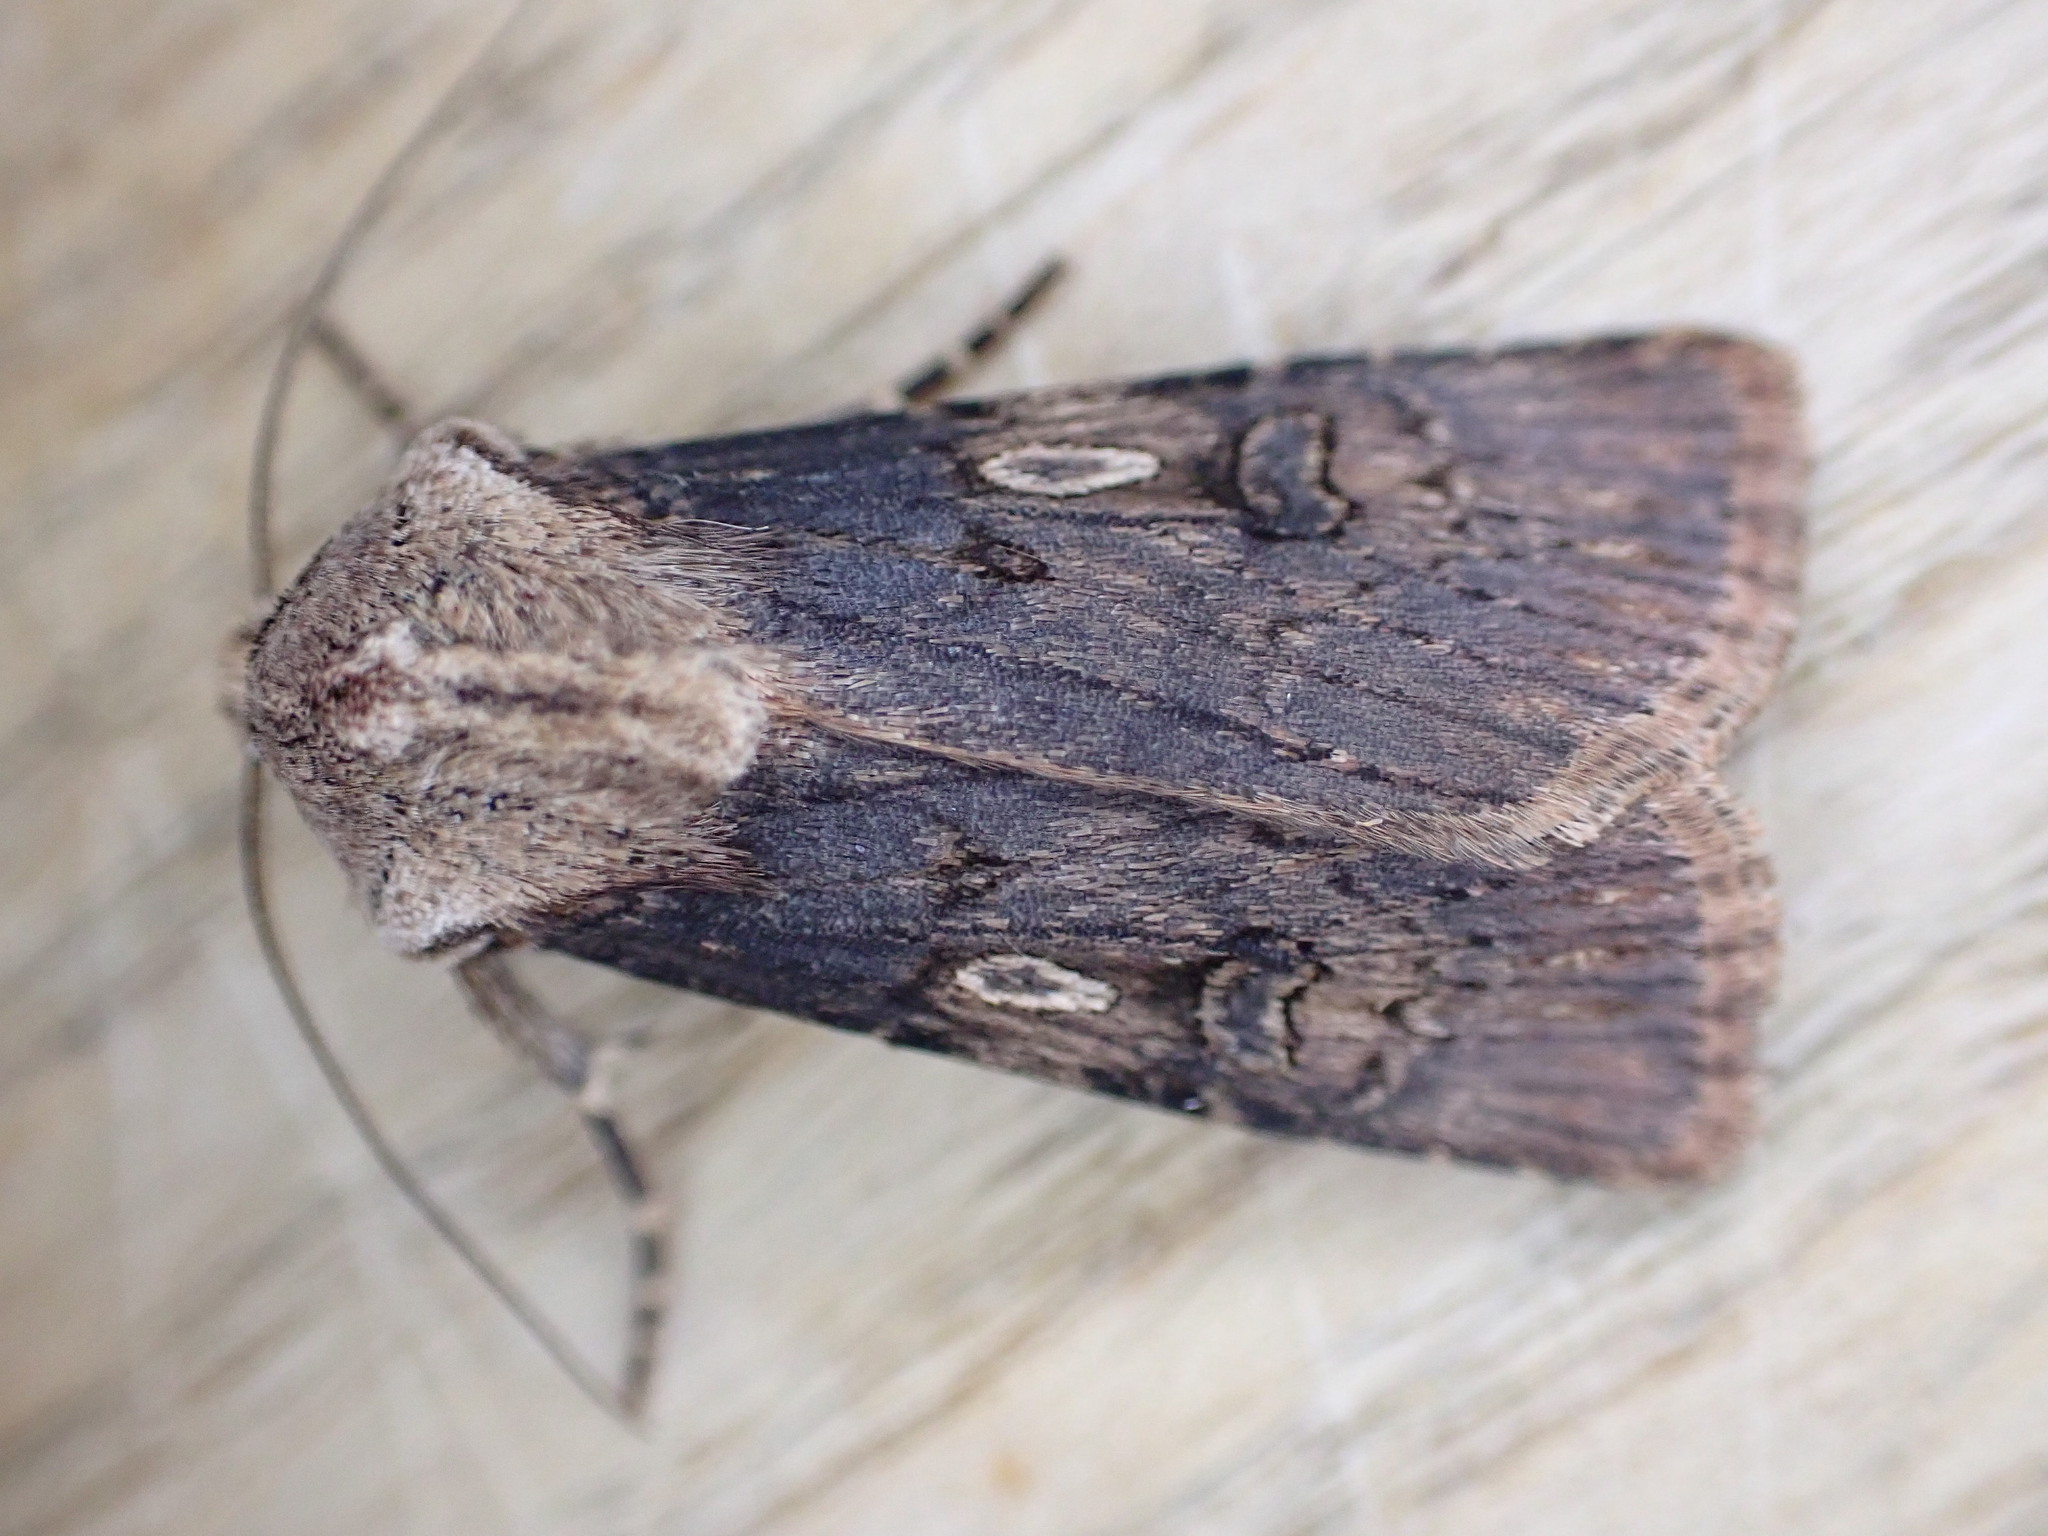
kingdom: Animalia
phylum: Arthropoda
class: Insecta
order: Lepidoptera
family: Noctuidae
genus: Agrotis
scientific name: Agrotis puta
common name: Shuttle-shaped dart
